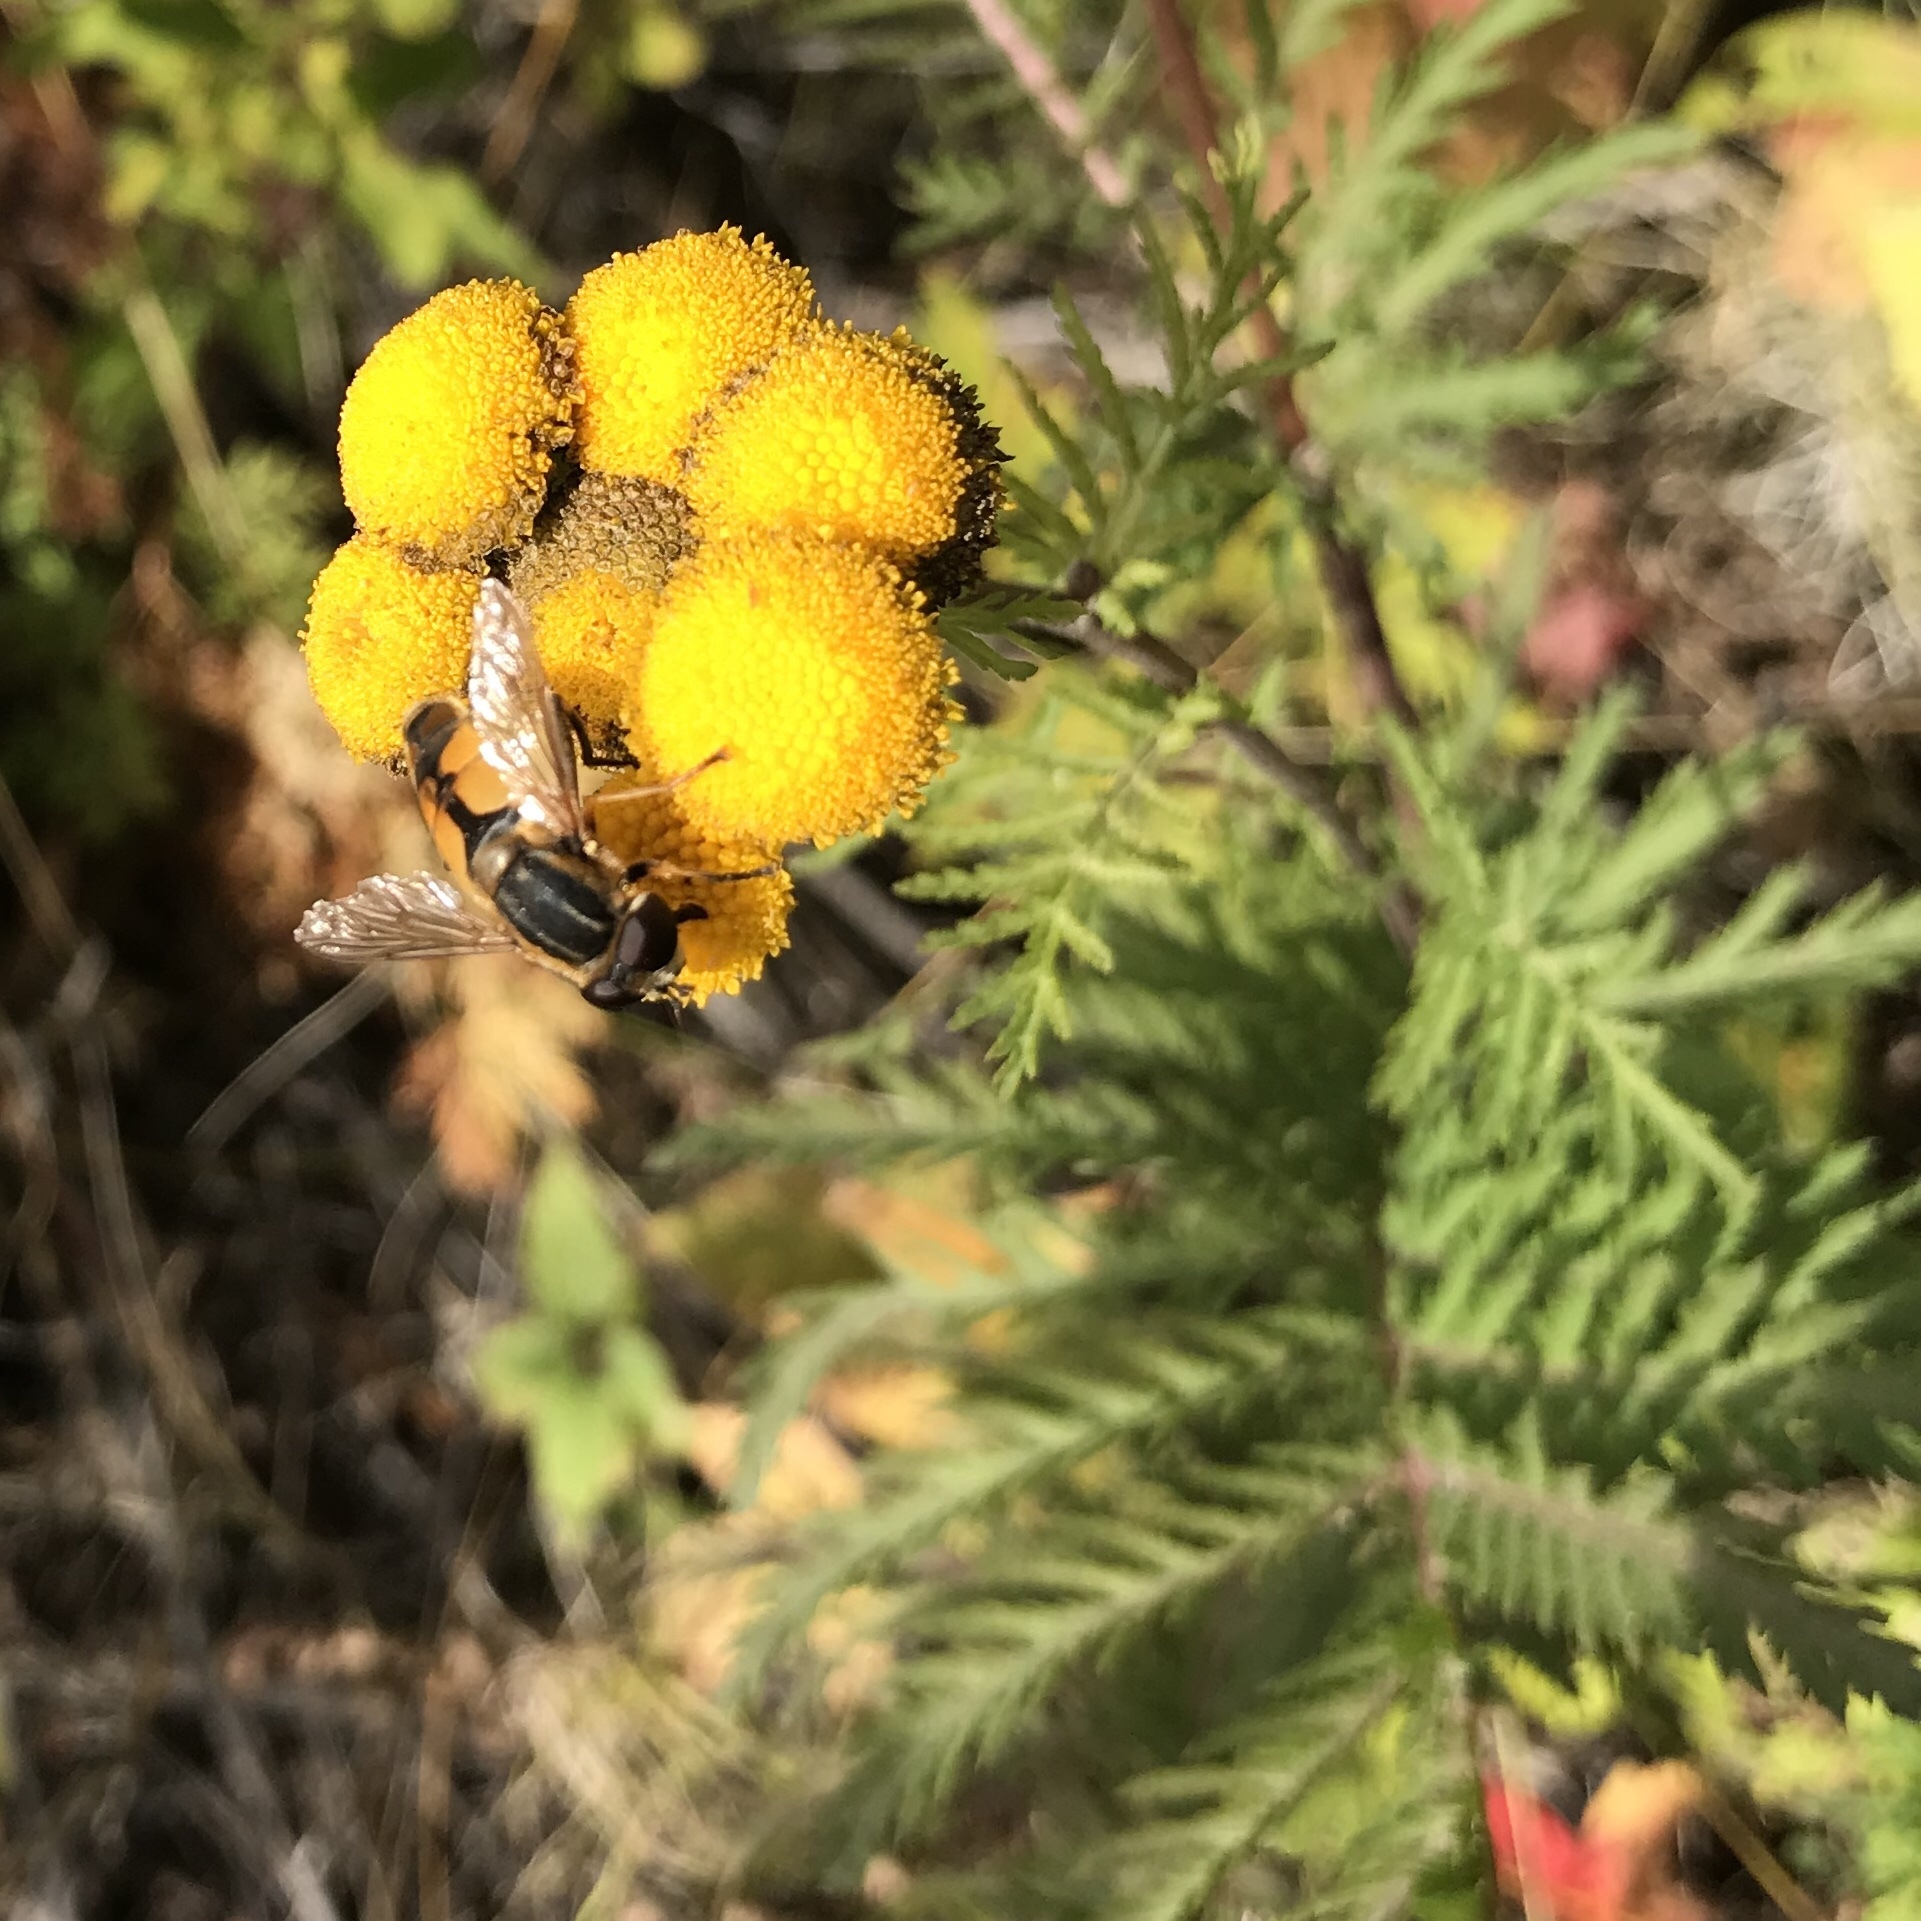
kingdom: Plantae
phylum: Tracheophyta
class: Magnoliopsida
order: Asterales
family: Asteraceae
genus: Tanacetum
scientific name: Tanacetum vulgare
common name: Common tansy
